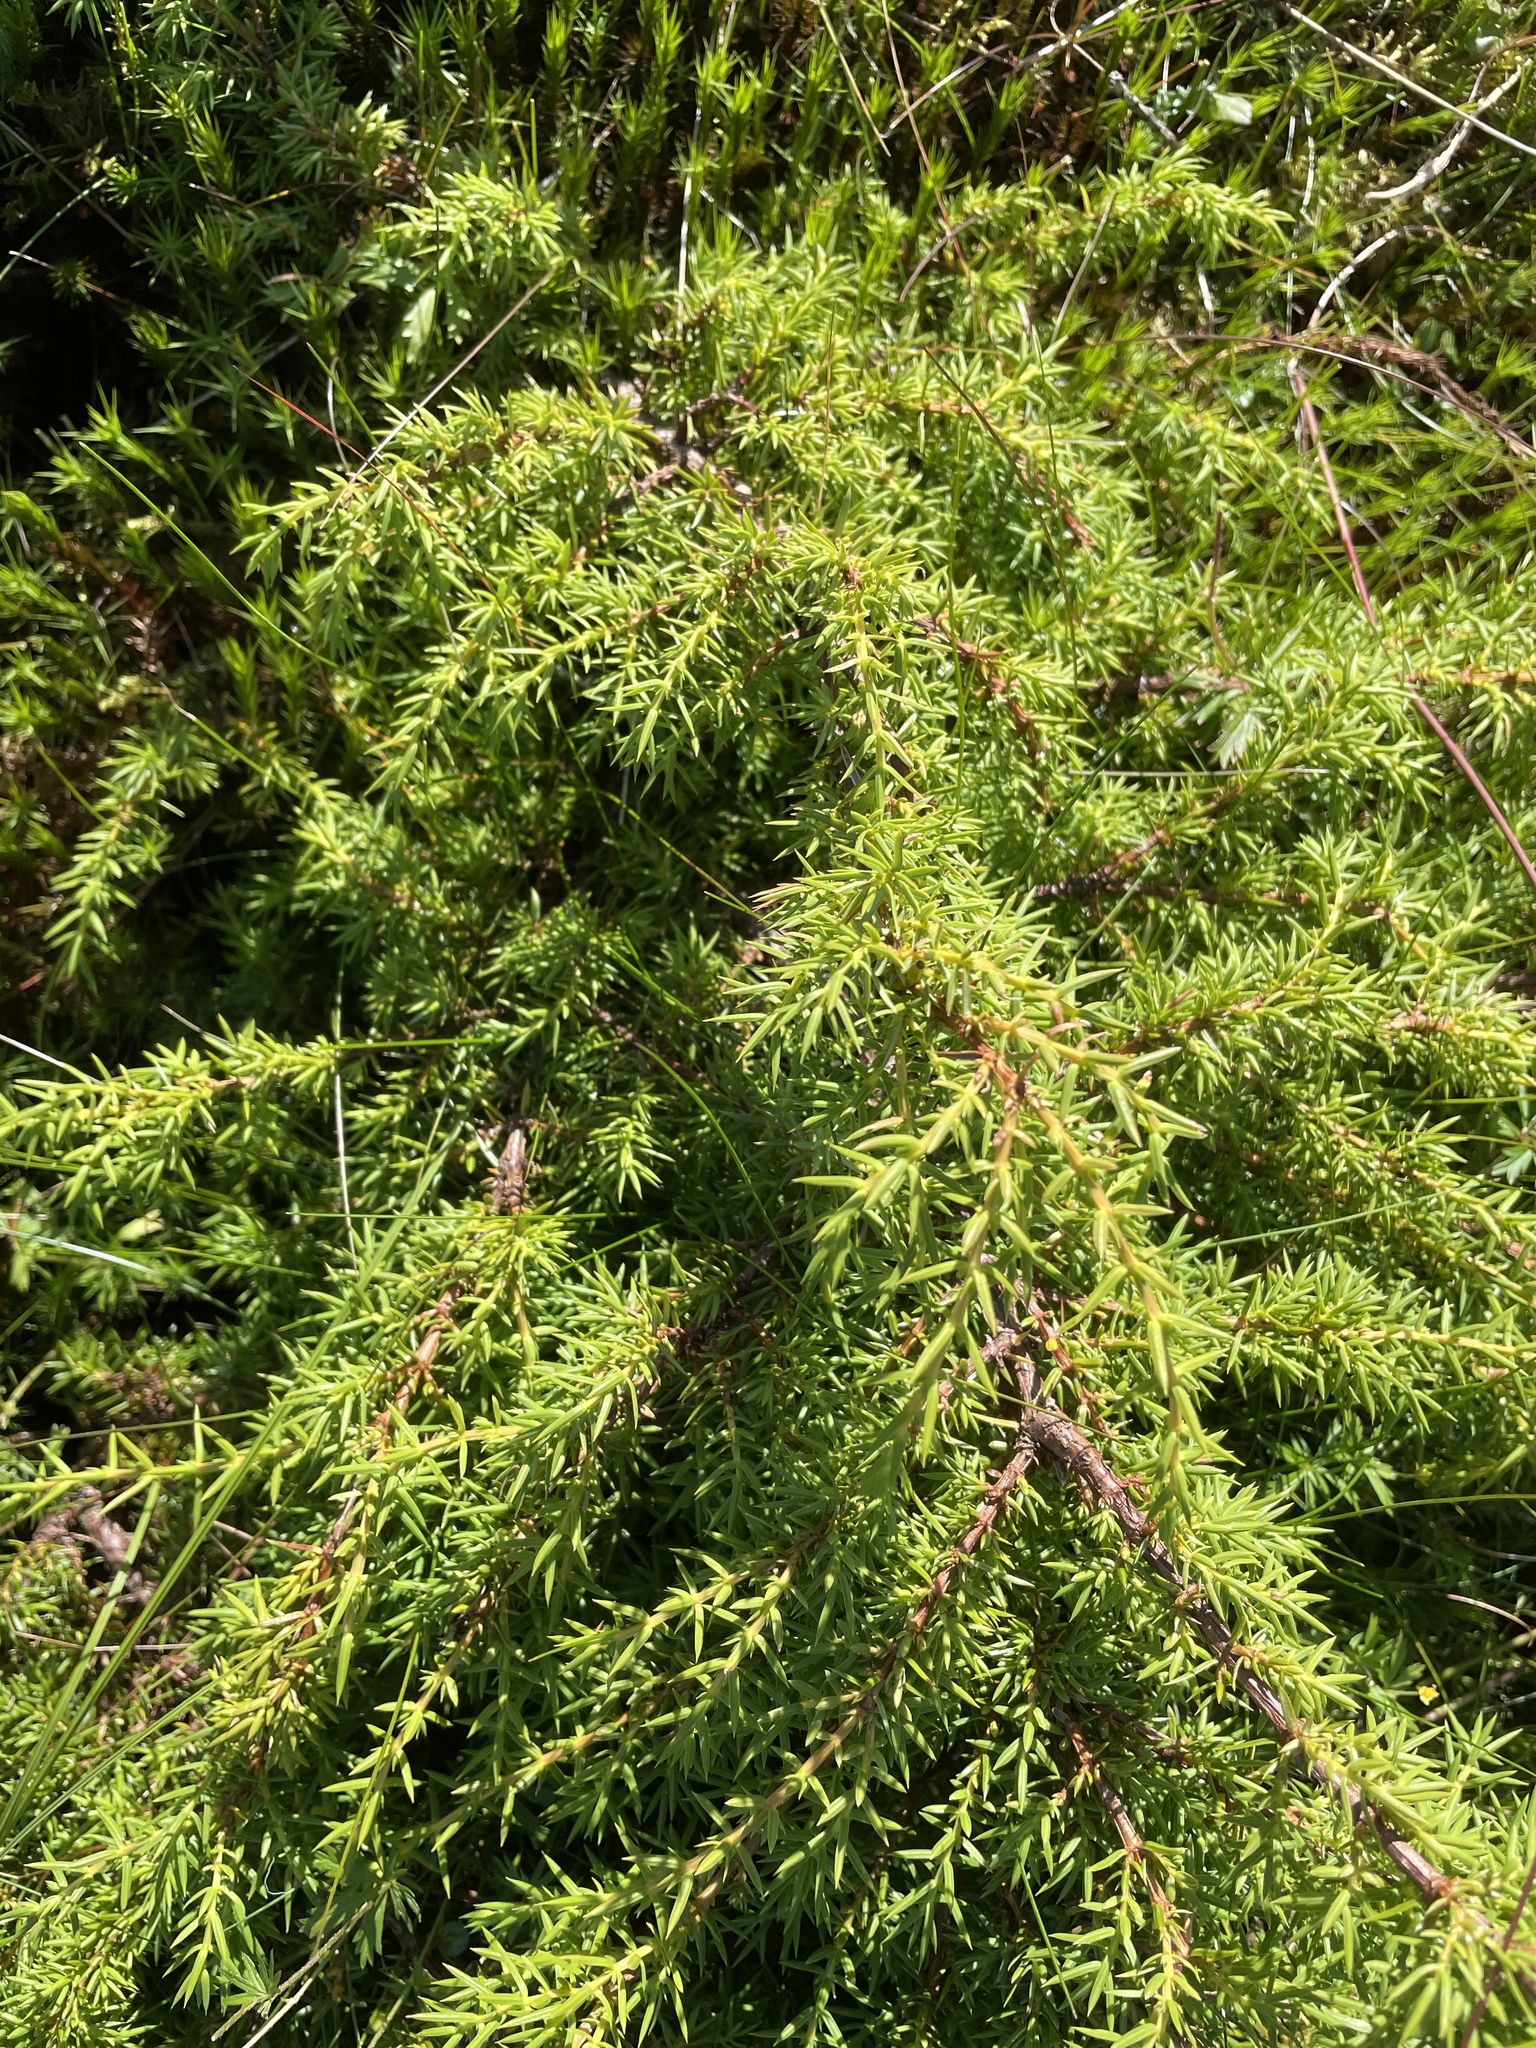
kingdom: Plantae
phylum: Tracheophyta
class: Pinopsida
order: Pinales
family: Cupressaceae
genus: Juniperus
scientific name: Juniperus communis
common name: Common juniper
